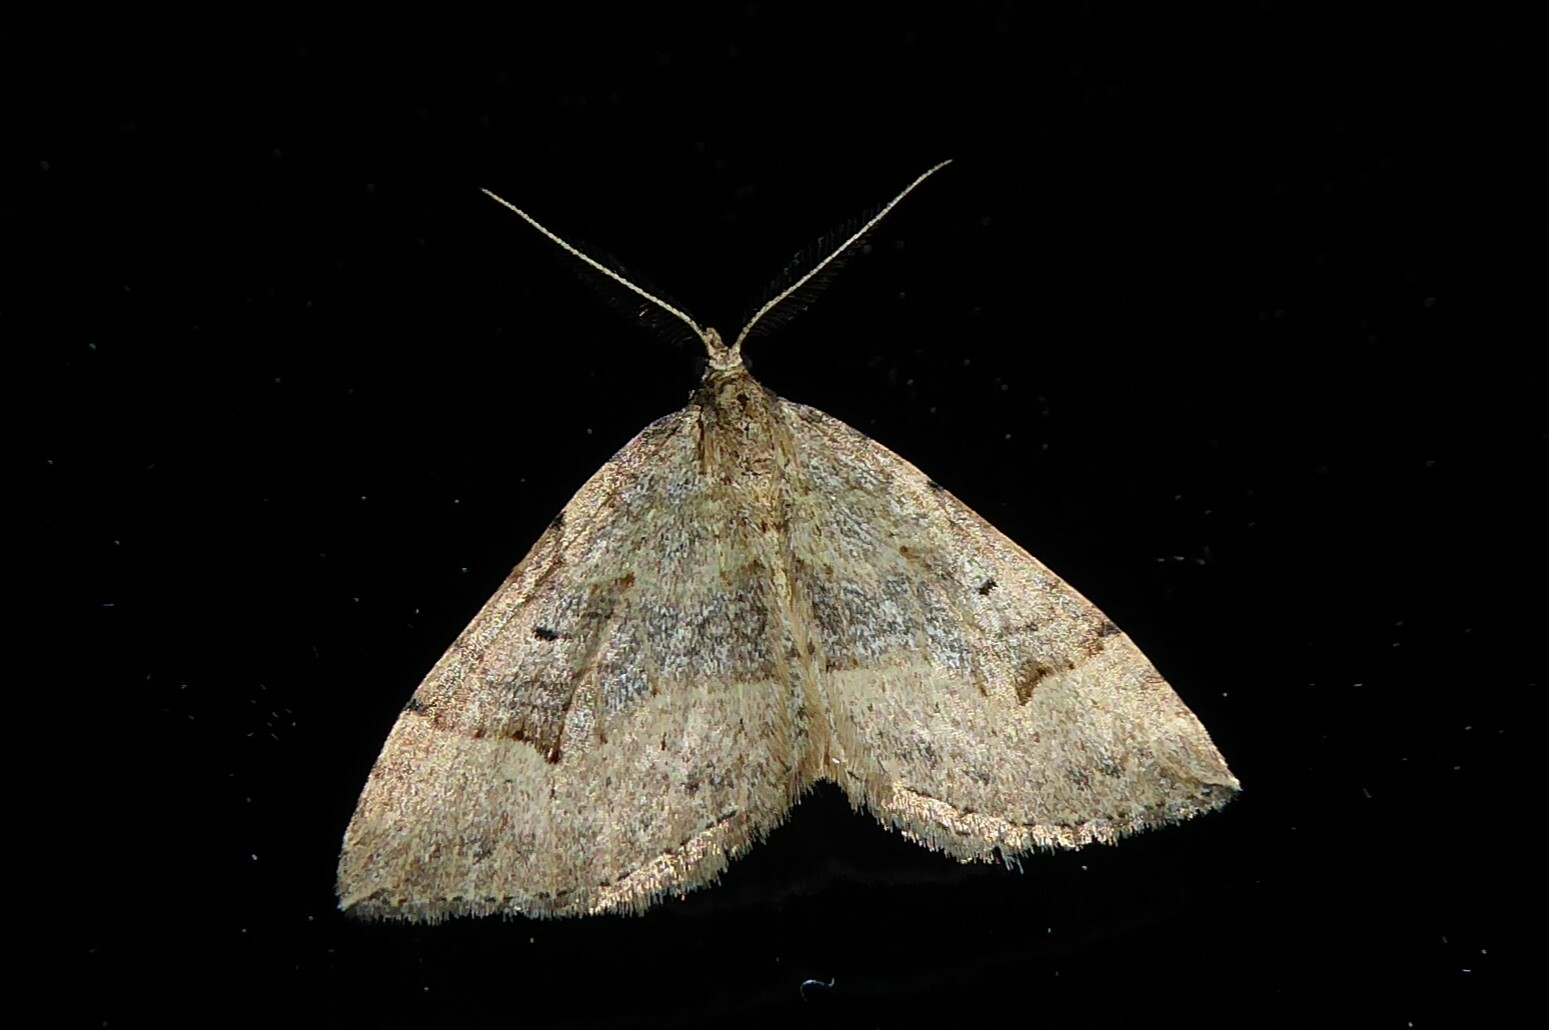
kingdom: Animalia
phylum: Arthropoda
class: Insecta
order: Lepidoptera
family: Geometridae
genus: Epyaxa
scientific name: Epyaxa rosearia
